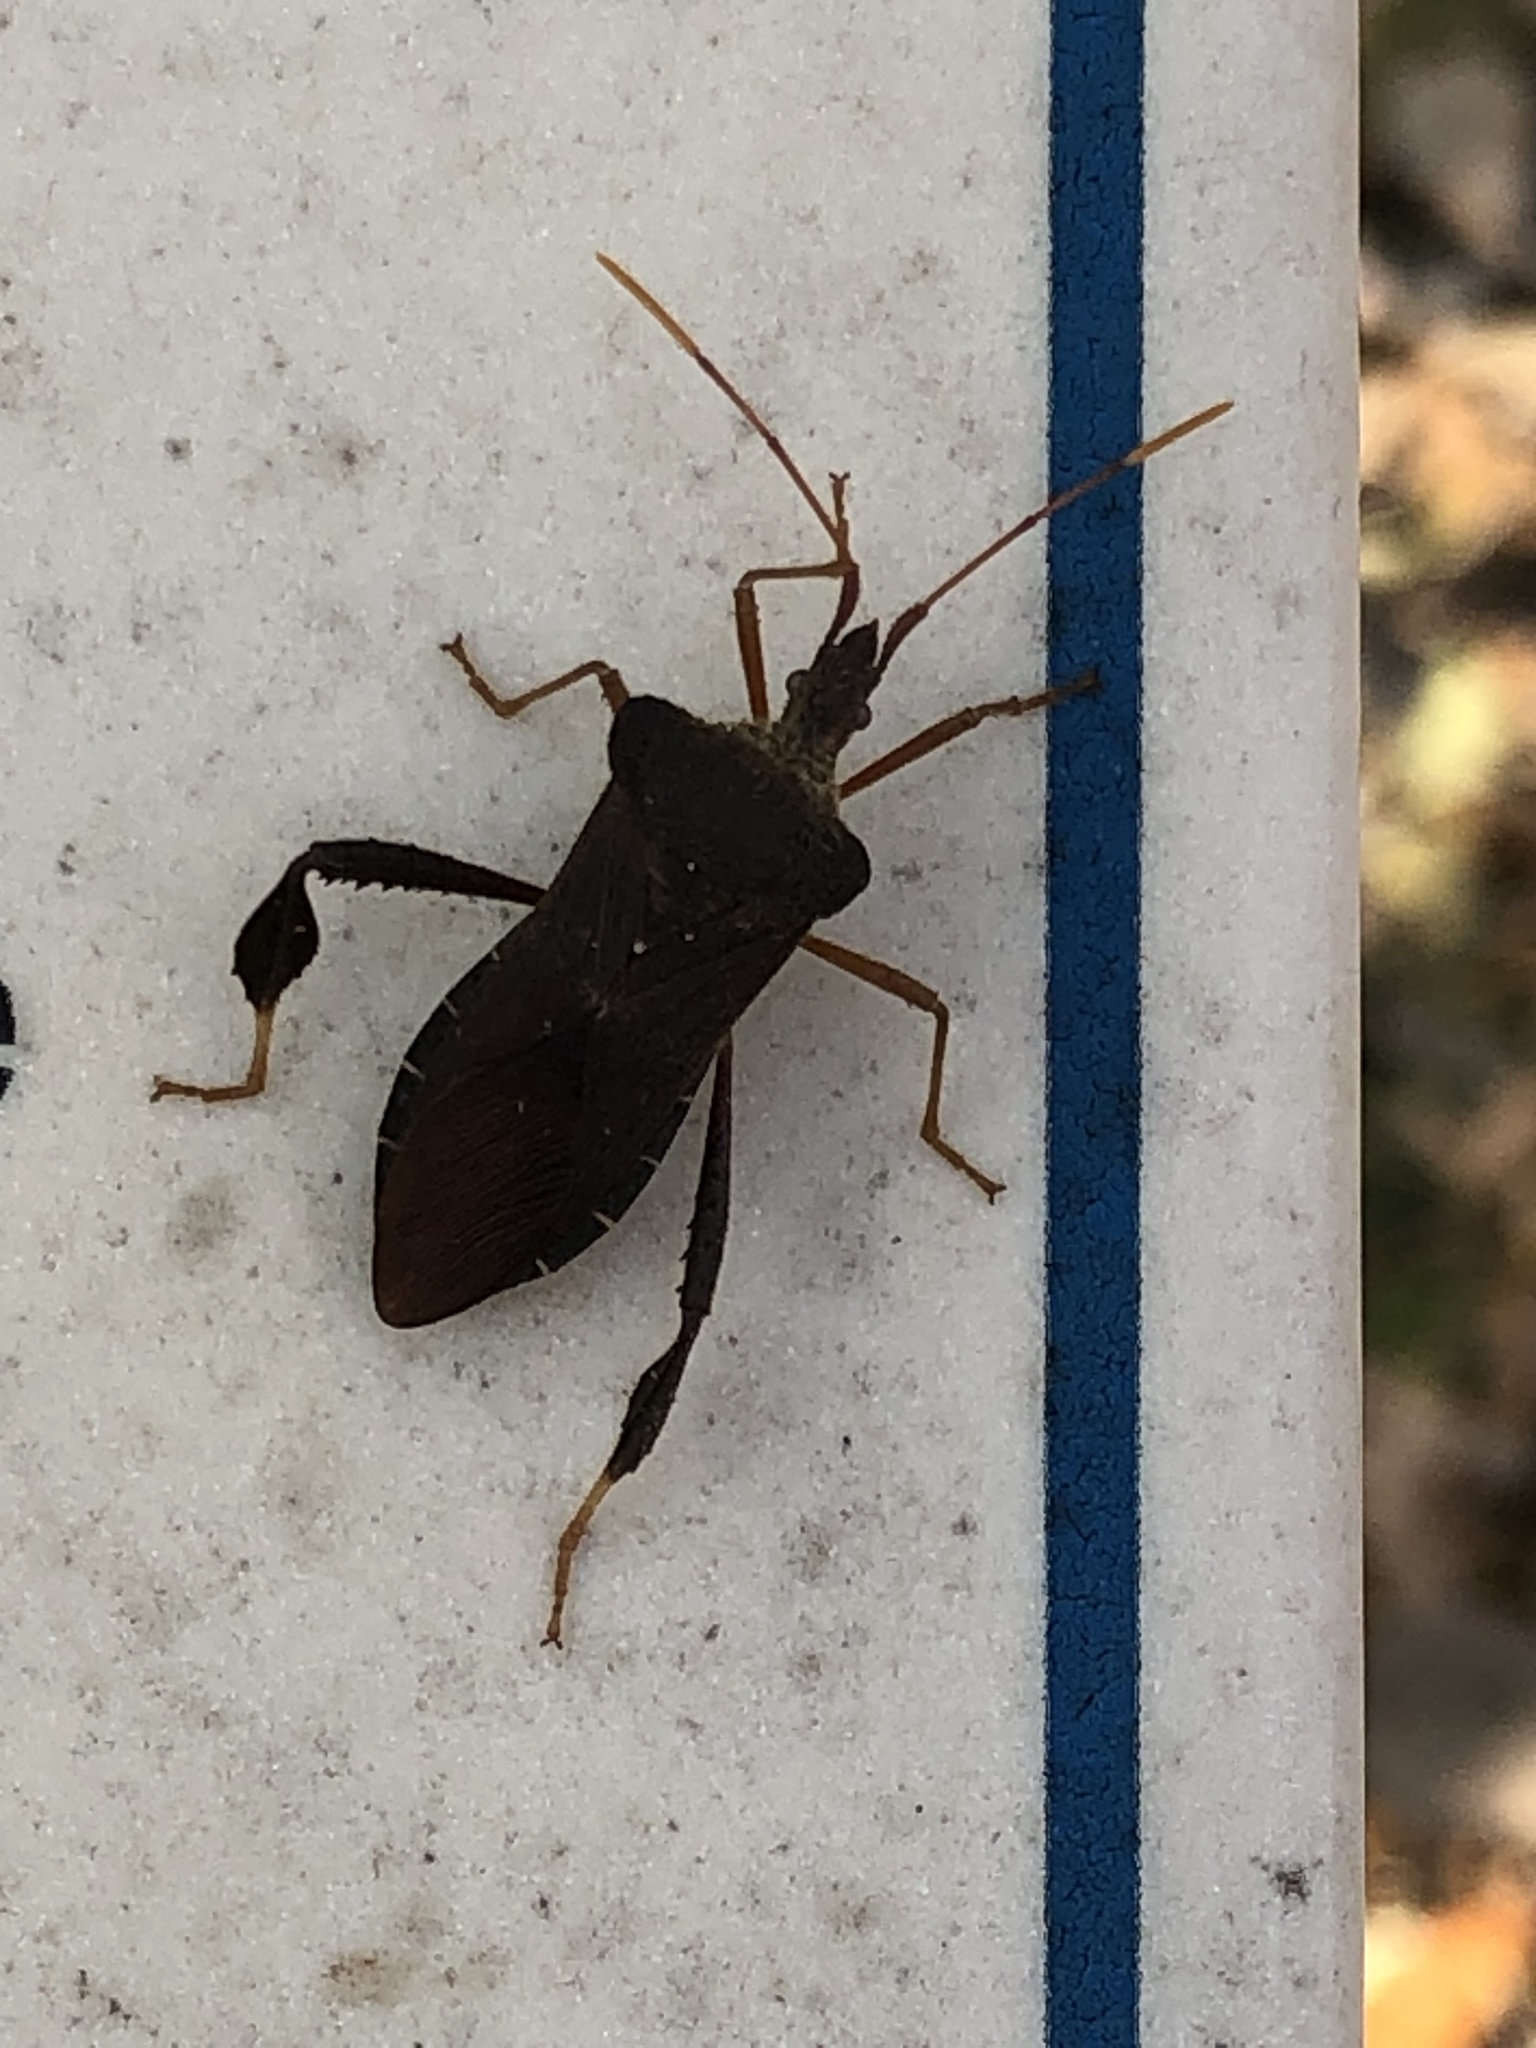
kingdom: Animalia
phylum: Arthropoda
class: Insecta
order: Hemiptera
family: Coreidae
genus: Leptoglossus
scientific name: Leptoglossus fulvicornis
